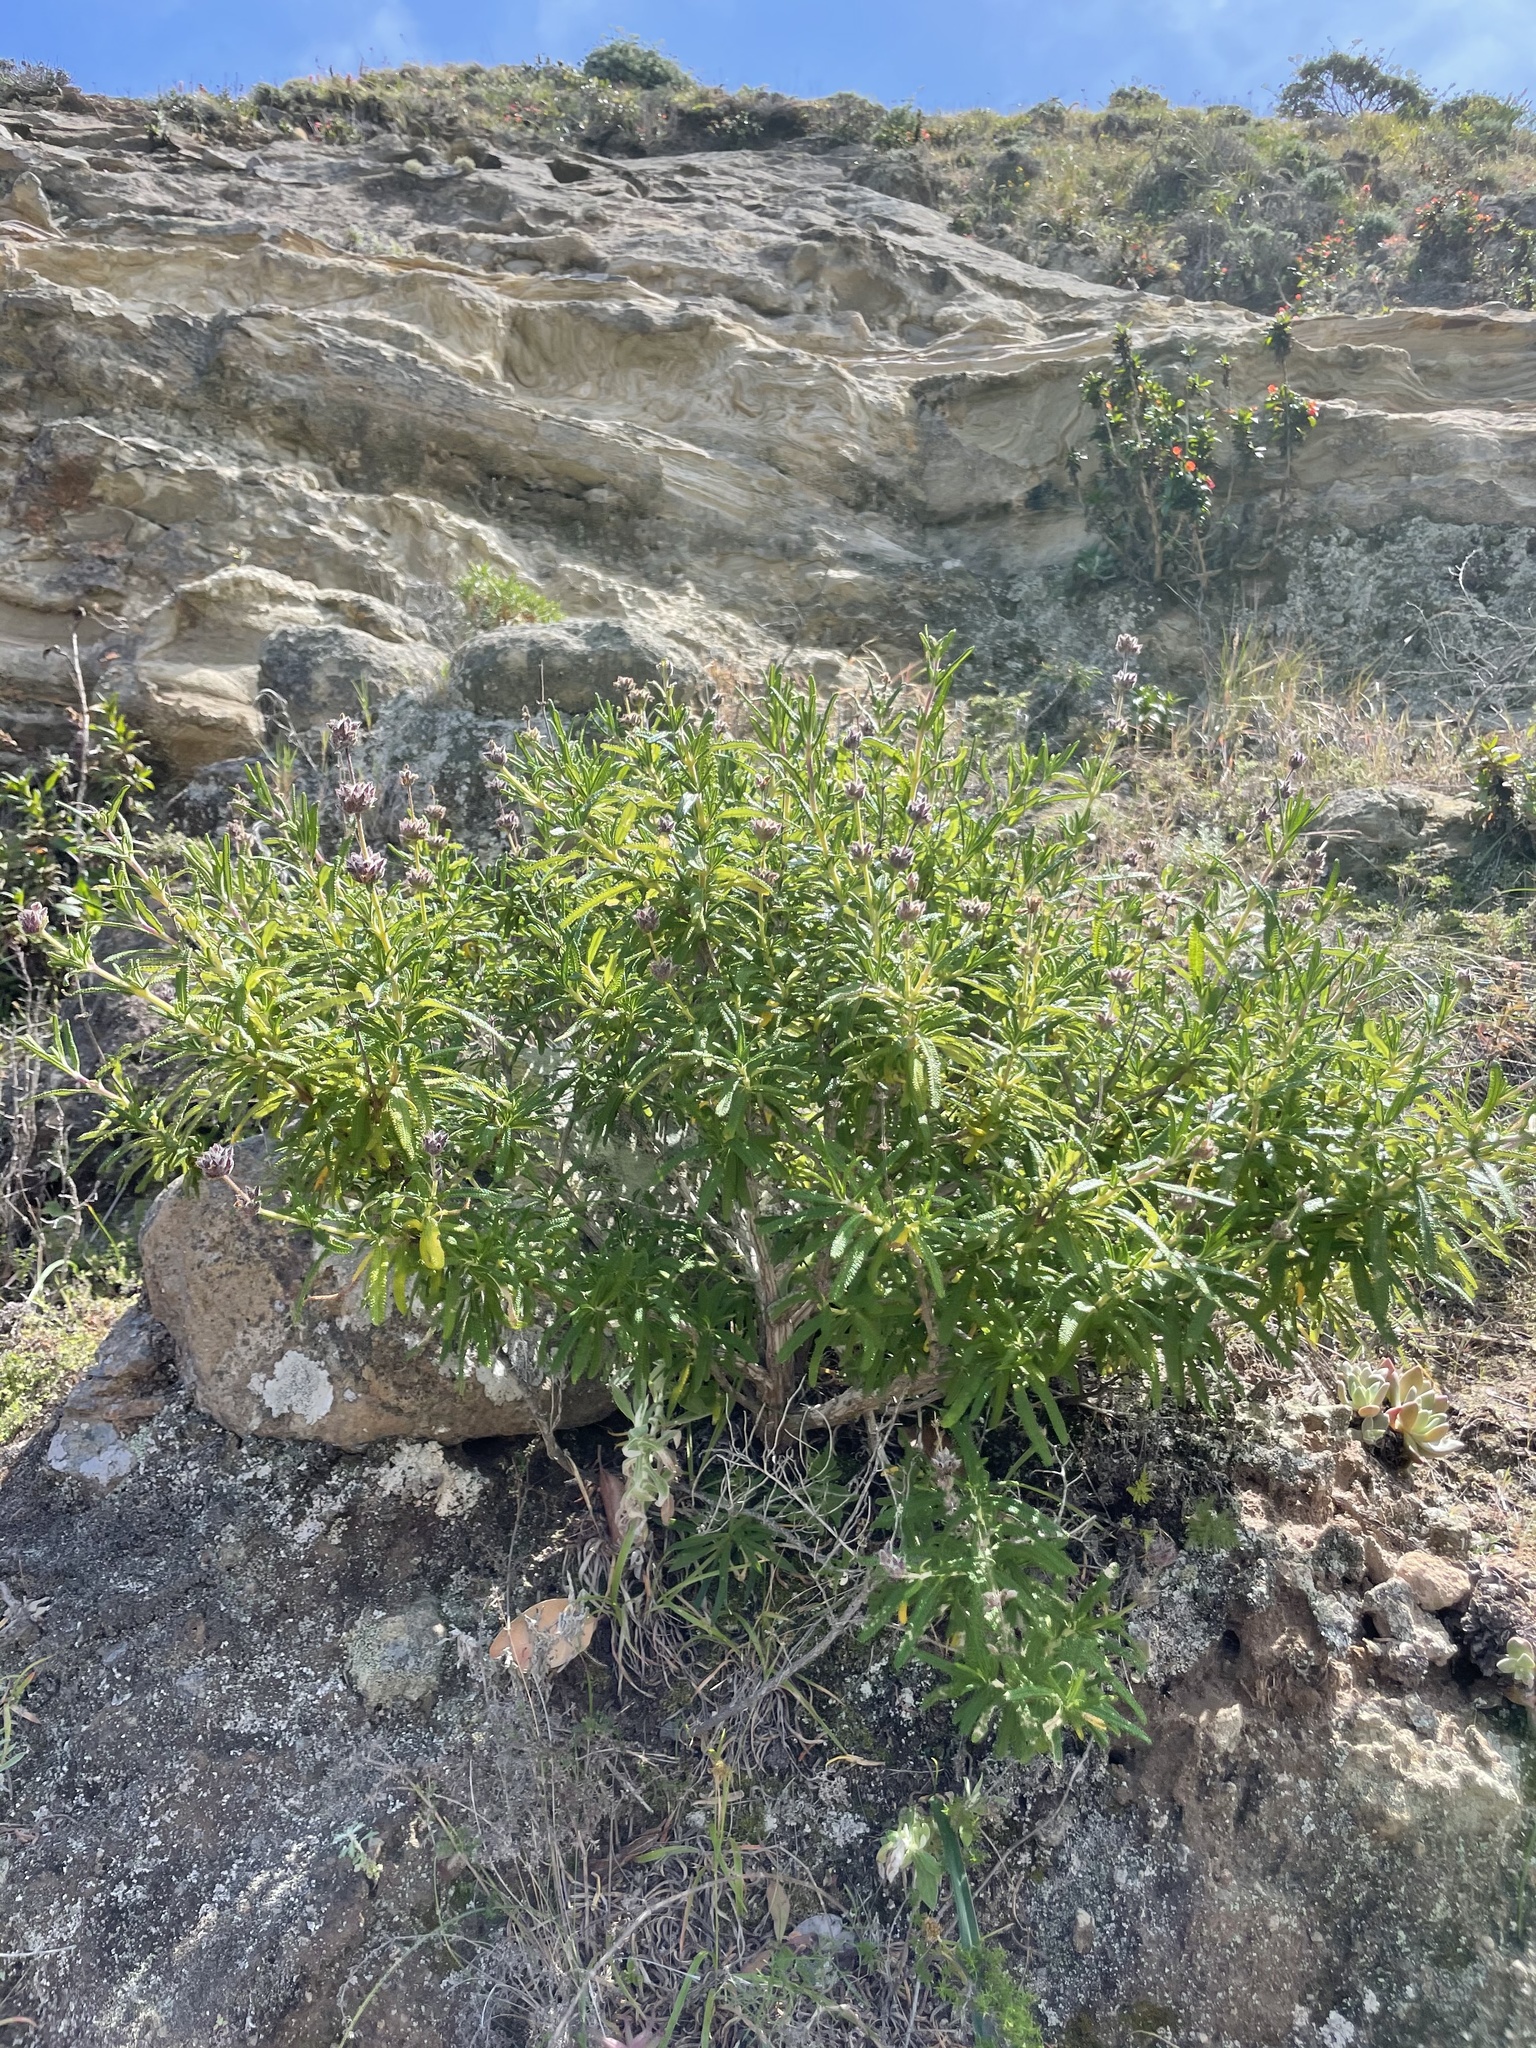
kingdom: Plantae
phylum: Tracheophyta
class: Magnoliopsida
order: Lamiales
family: Lamiaceae
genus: Salvia
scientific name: Salvia brandegeei
